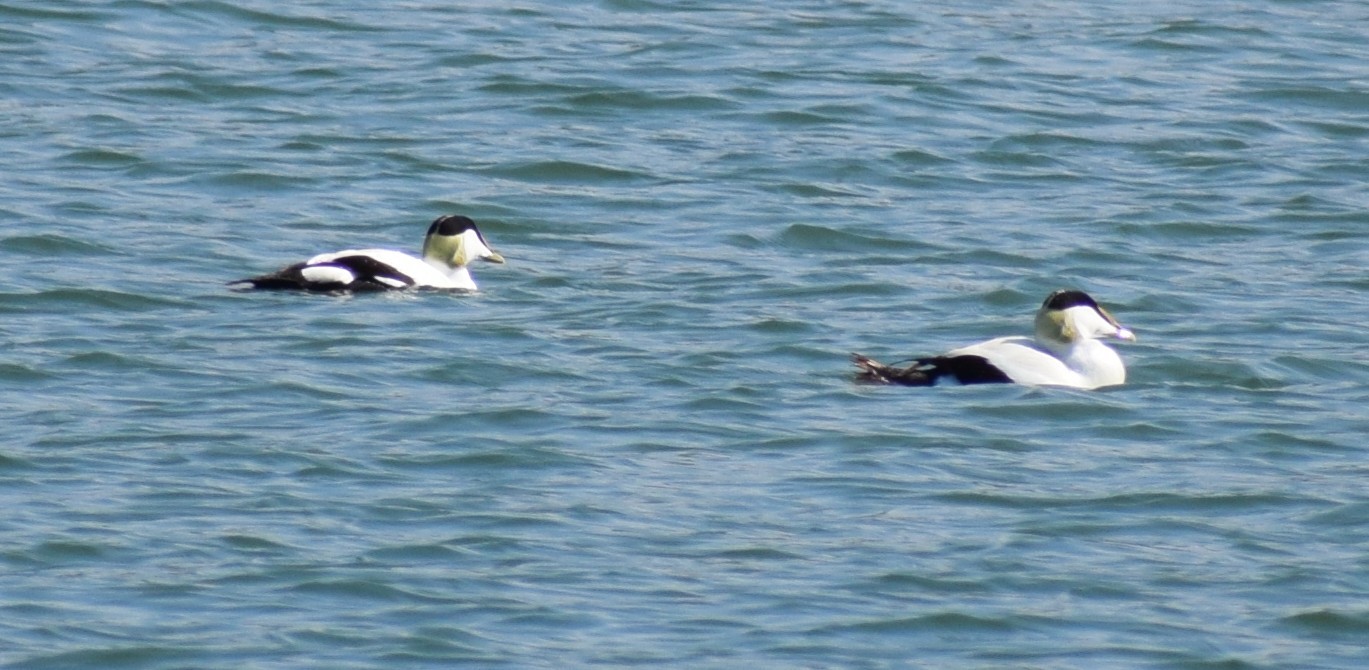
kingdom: Animalia
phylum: Chordata
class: Aves
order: Anseriformes
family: Anatidae
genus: Somateria
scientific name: Somateria mollissima
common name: Common eider
